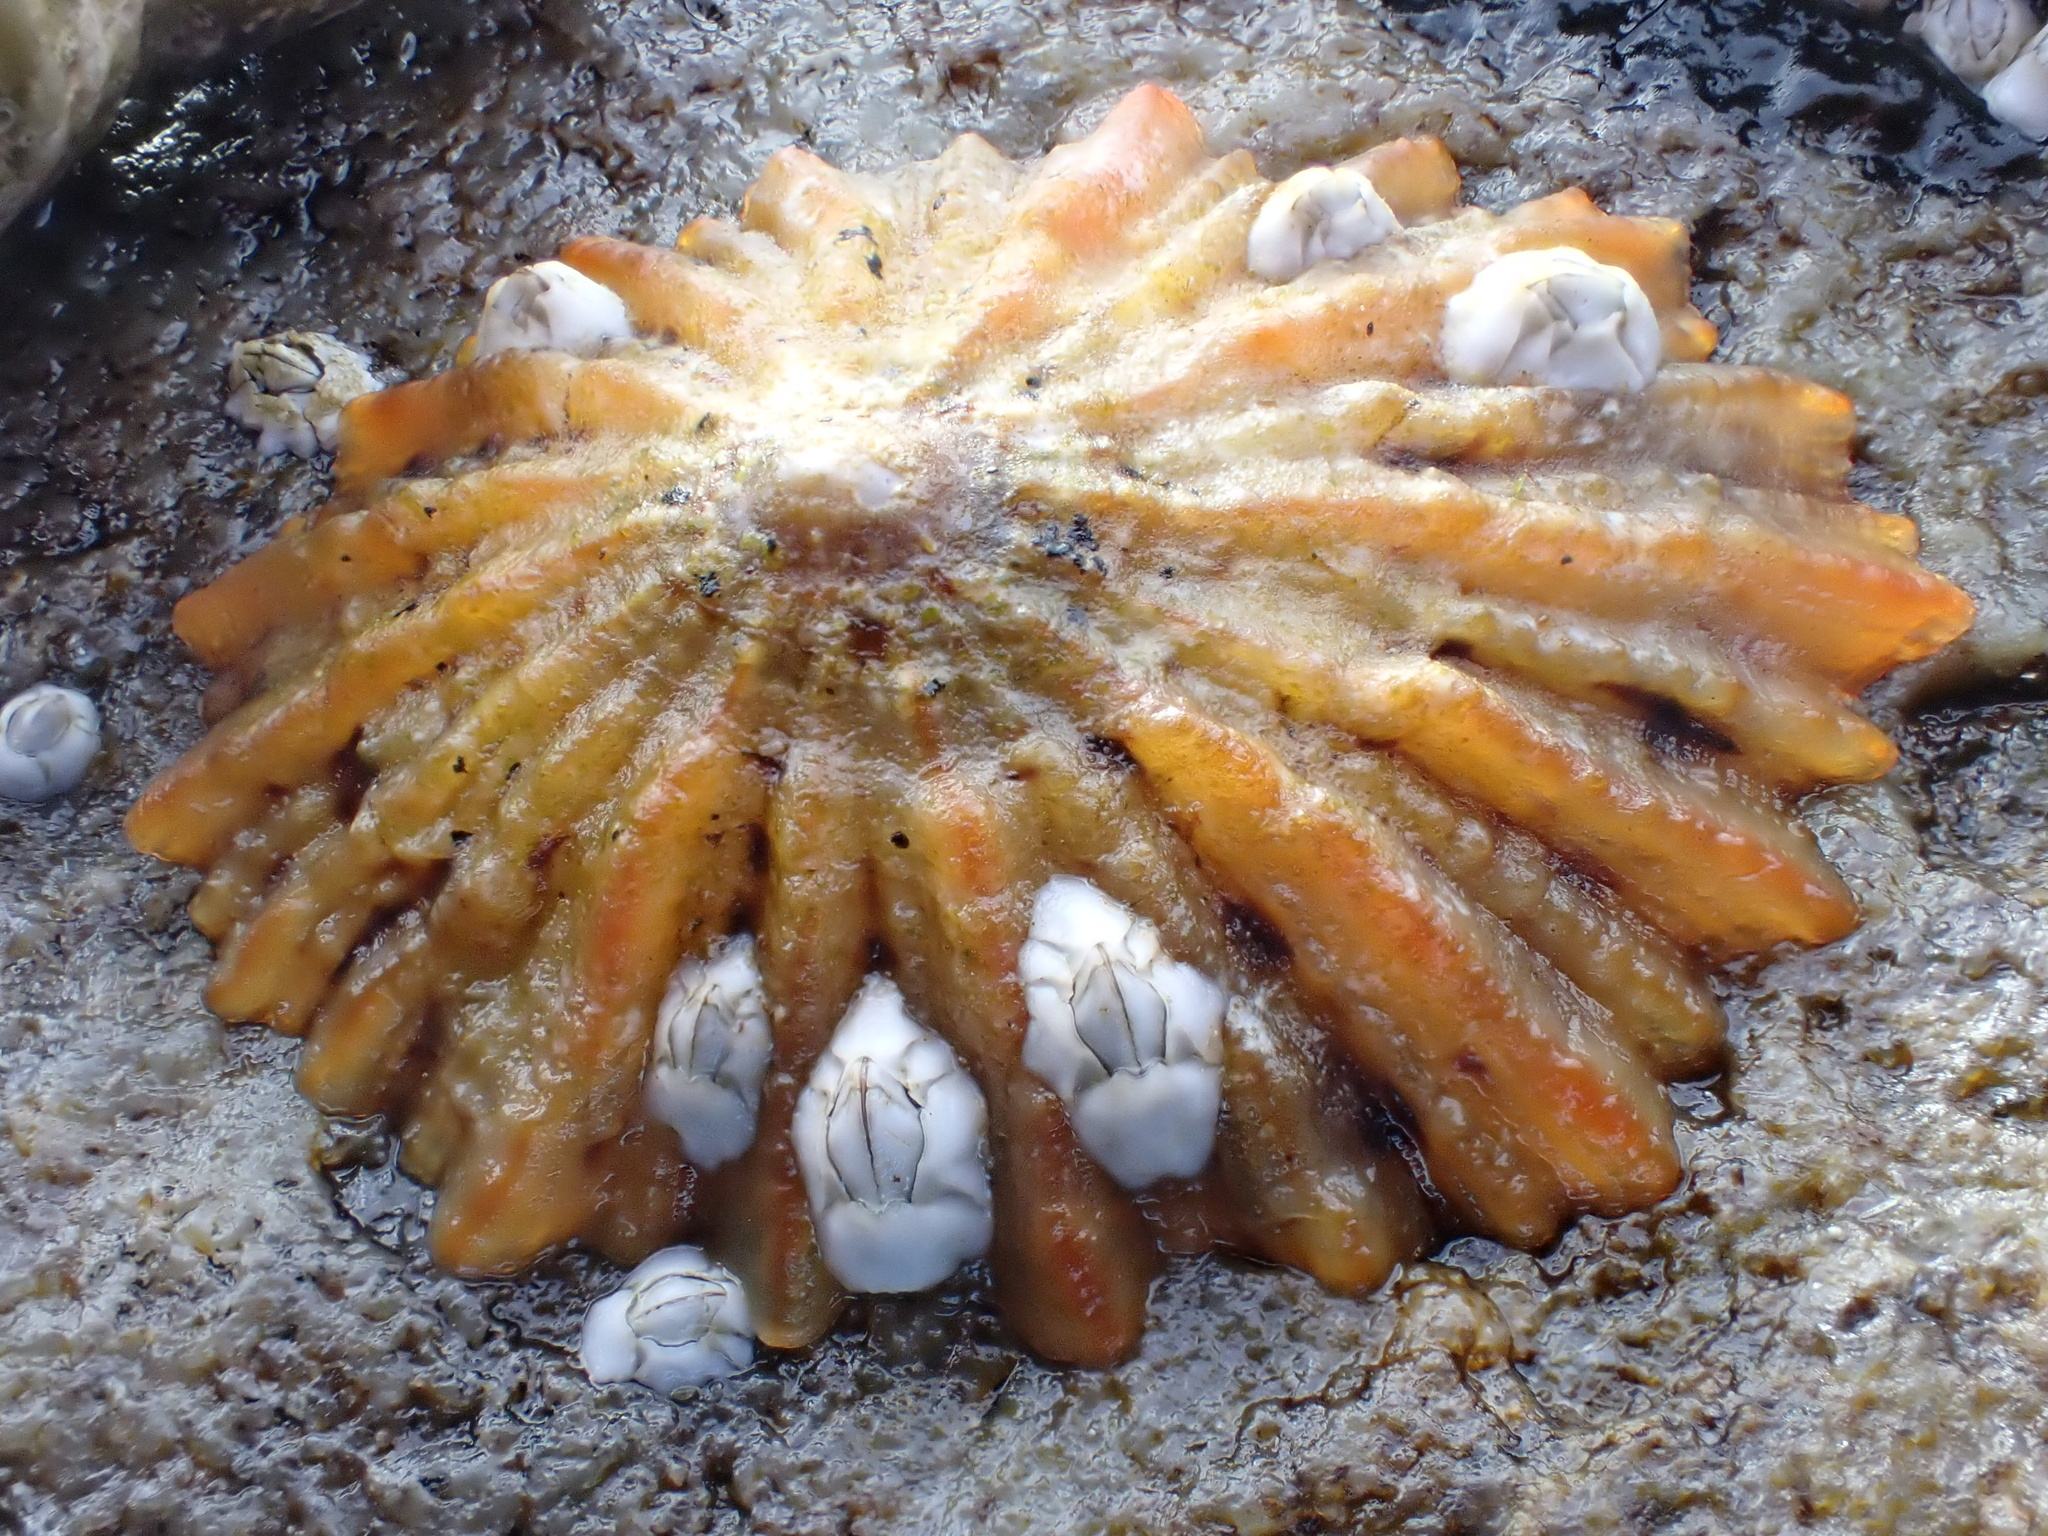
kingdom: Animalia
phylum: Mollusca
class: Gastropoda
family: Patellidae
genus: Patella
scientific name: Patella
